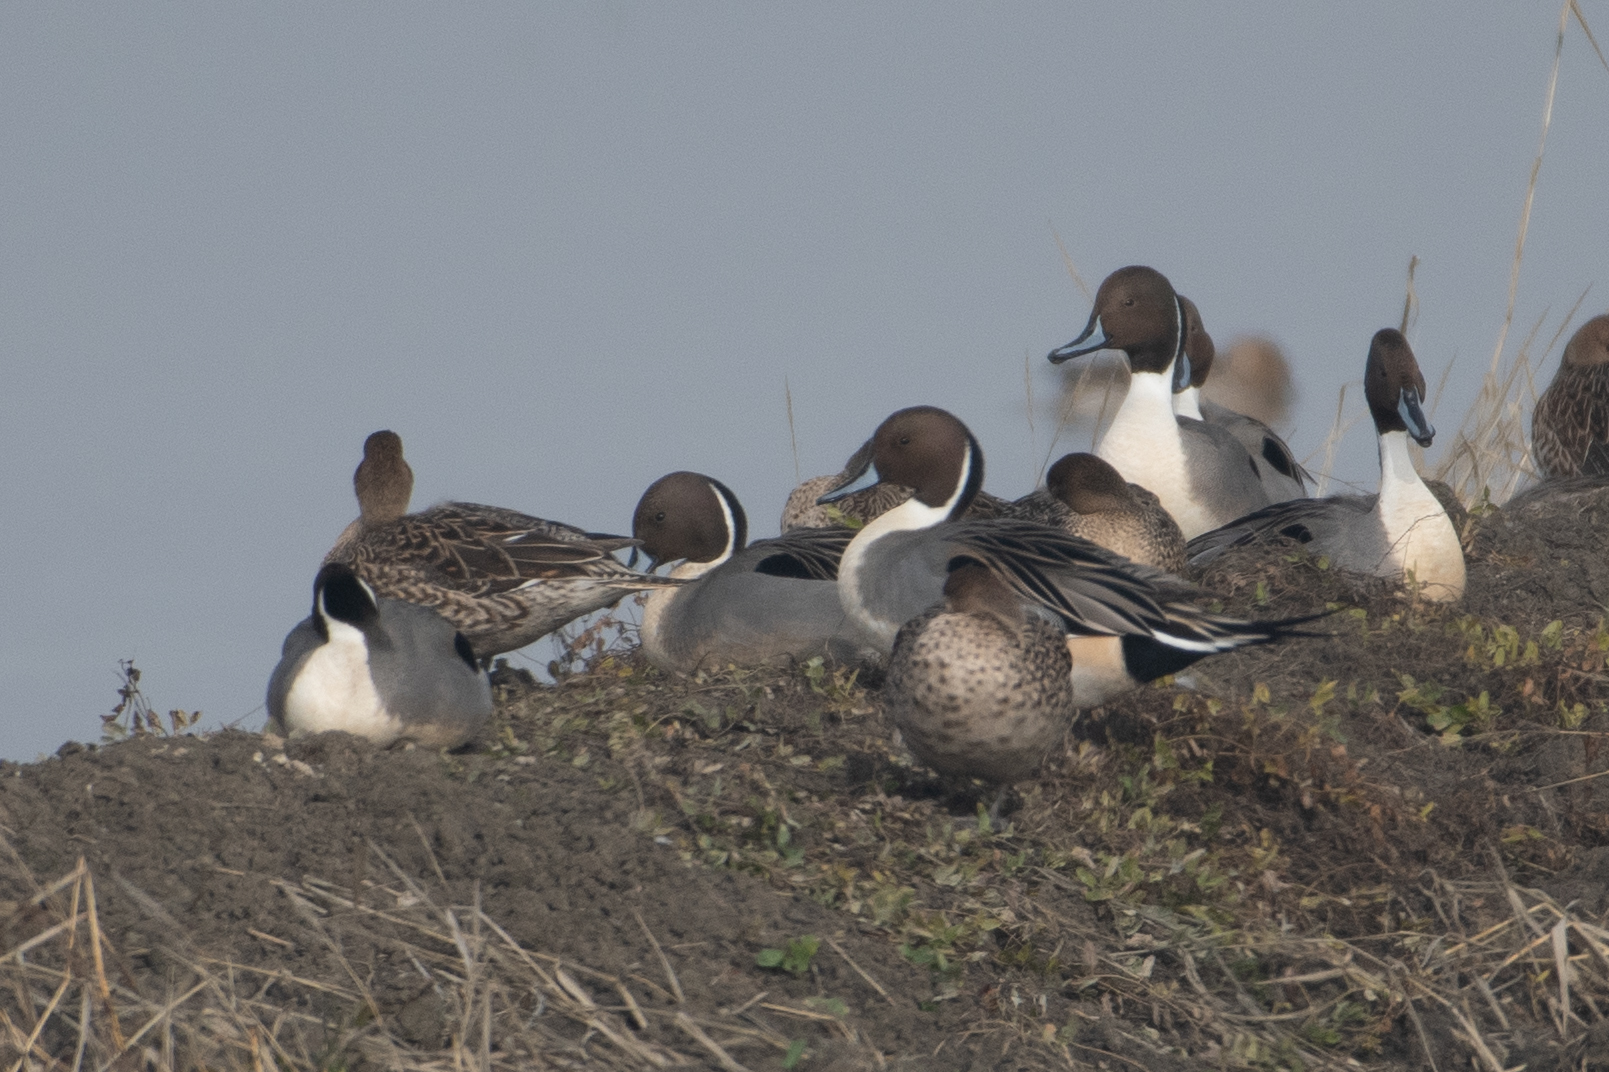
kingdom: Animalia
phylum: Chordata
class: Aves
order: Anseriformes
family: Anatidae
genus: Anas
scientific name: Anas acuta
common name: Northern pintail
